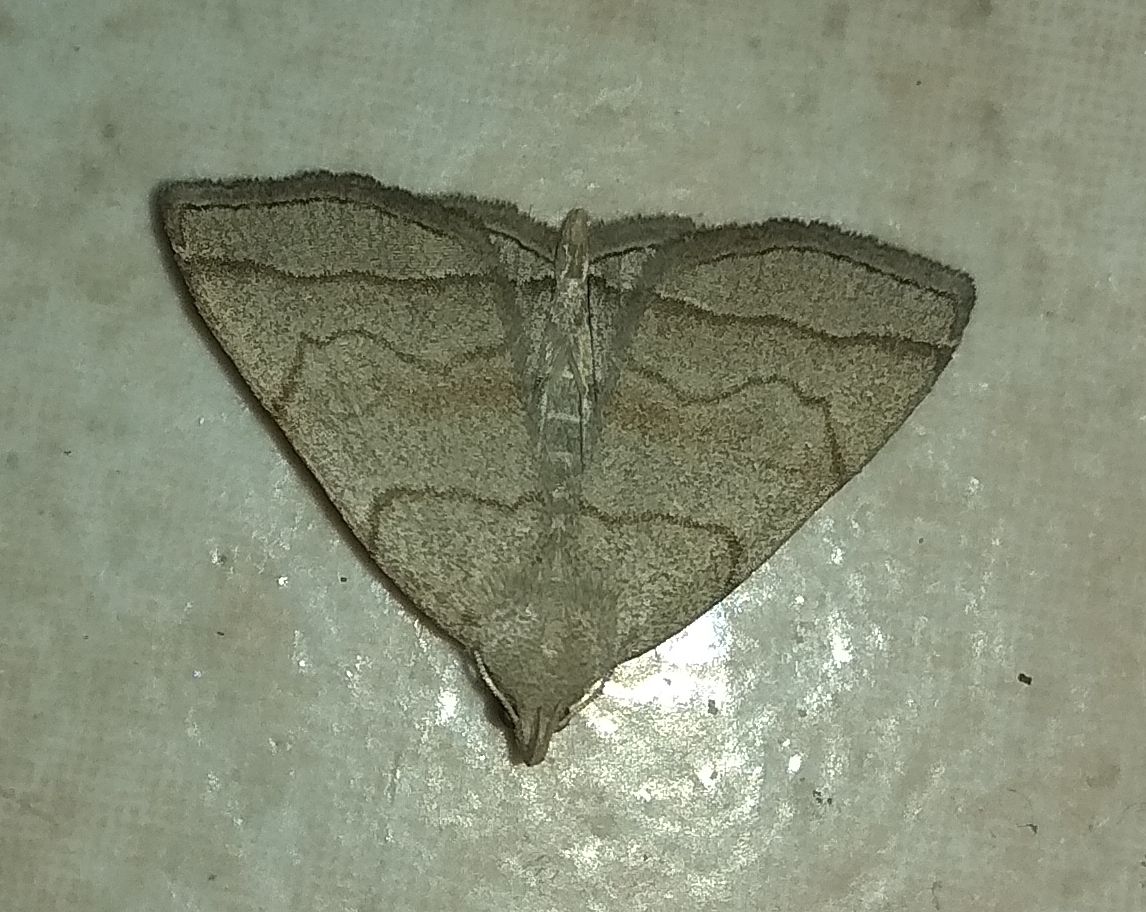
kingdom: Animalia
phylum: Arthropoda
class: Insecta
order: Lepidoptera
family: Erebidae
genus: Herminia
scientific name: Herminia tarsicrinalis
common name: Shaded fan-foot
